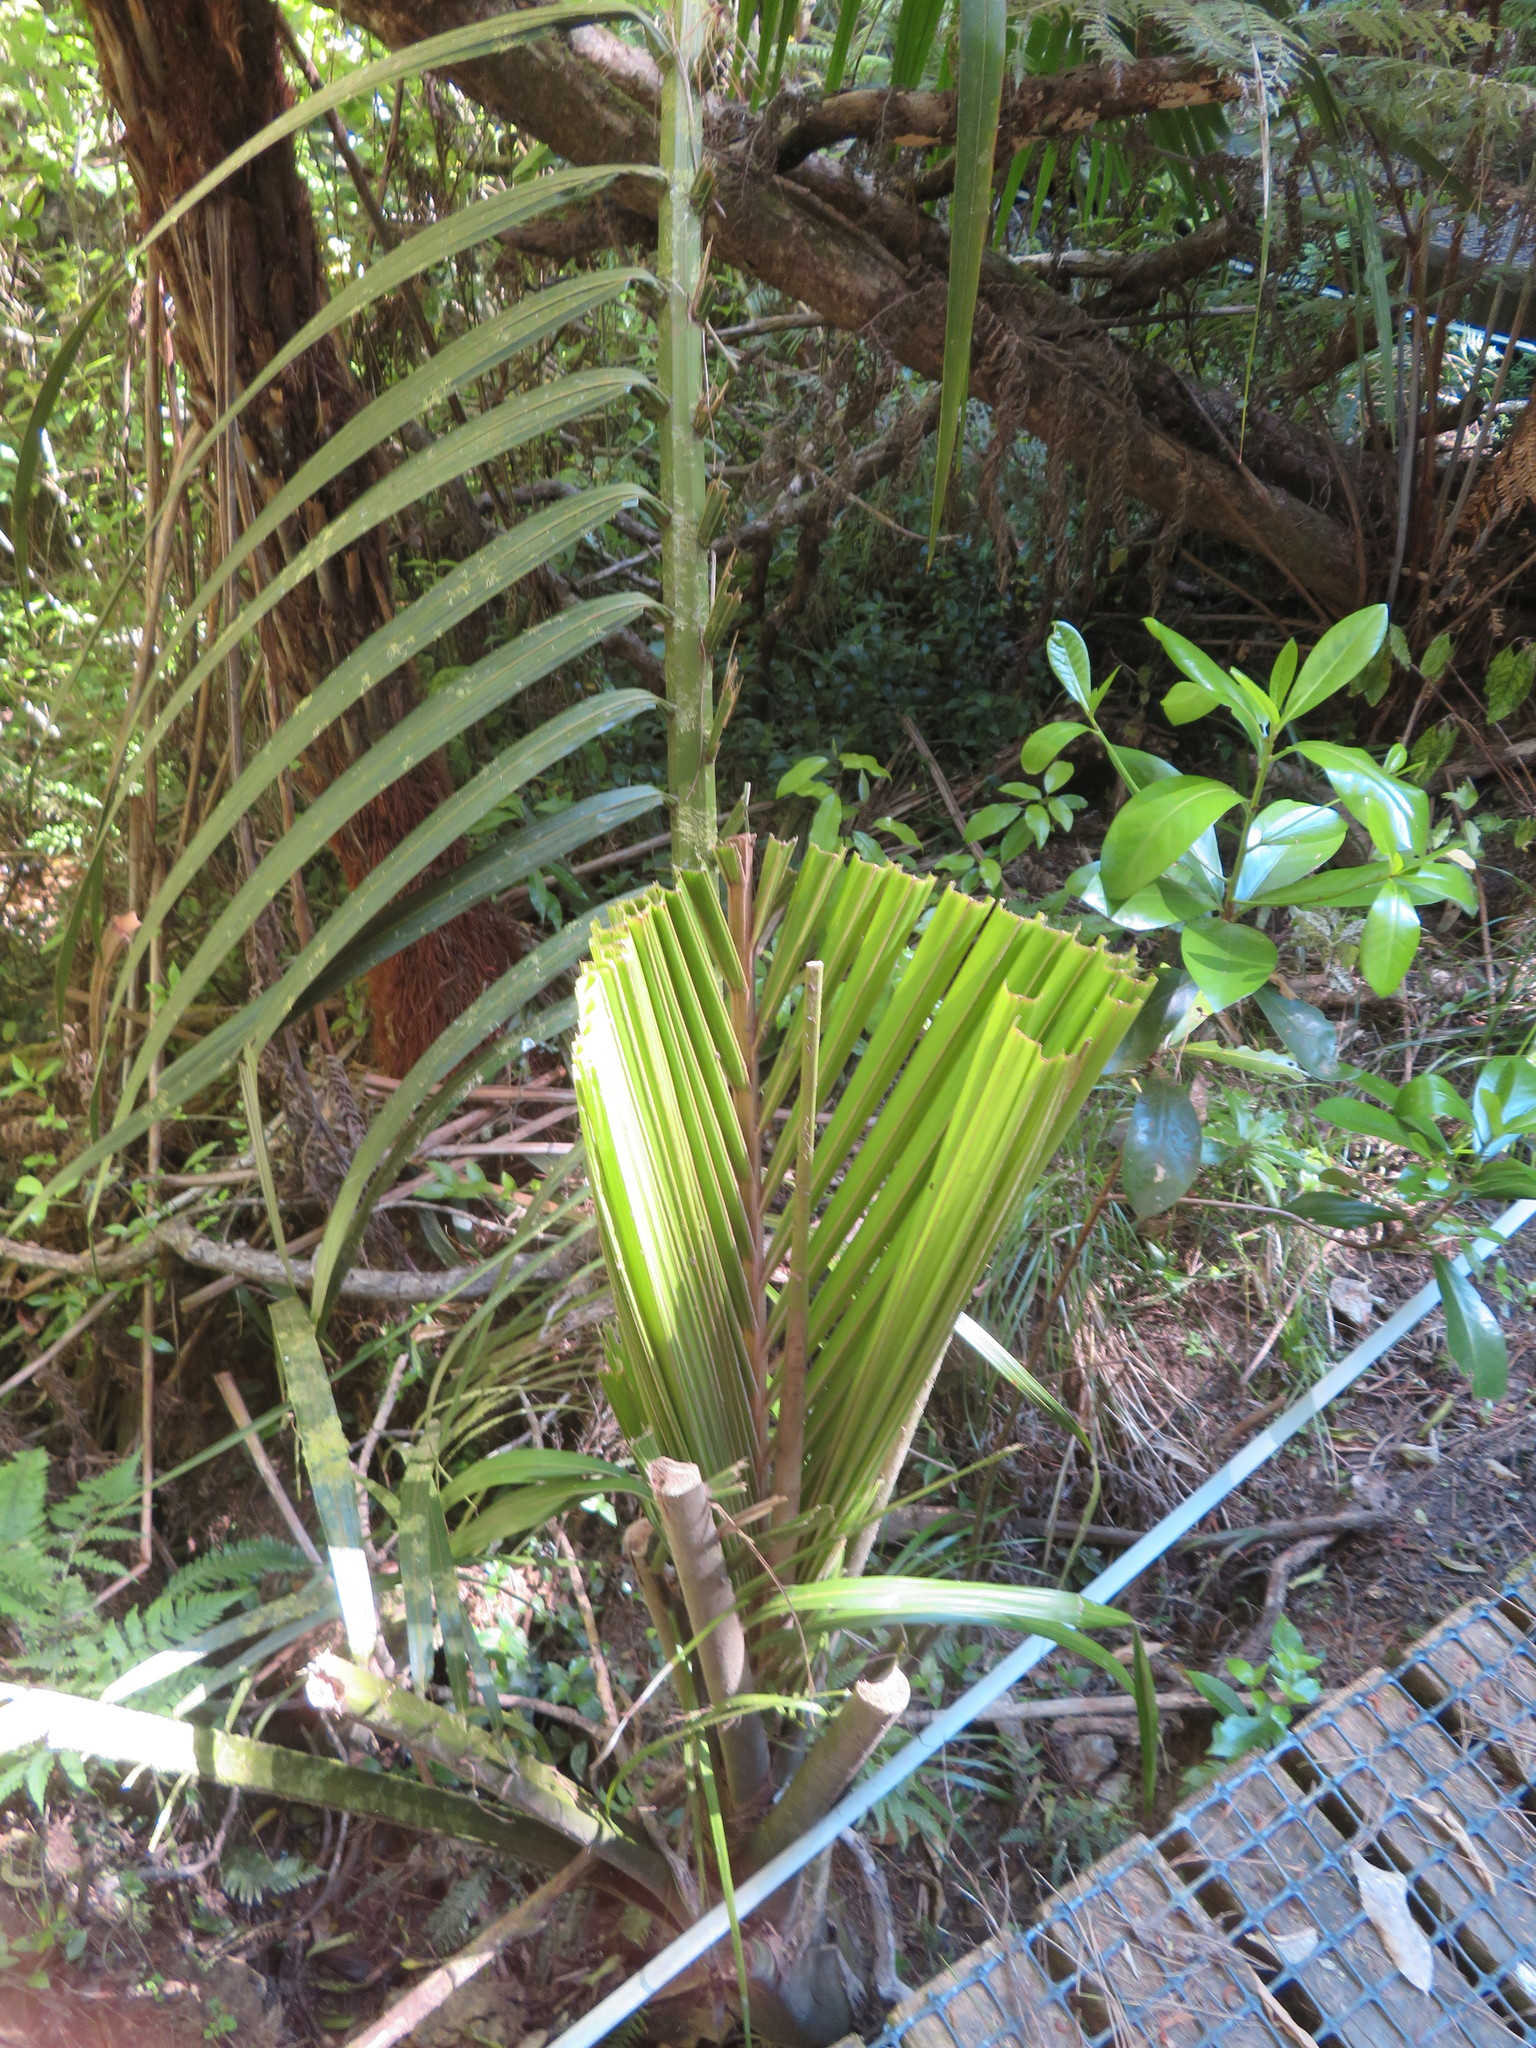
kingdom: Plantae
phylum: Tracheophyta
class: Liliopsida
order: Arecales
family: Arecaceae
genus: Rhopalostylis
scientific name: Rhopalostylis sapida
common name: Feather-duster palm
